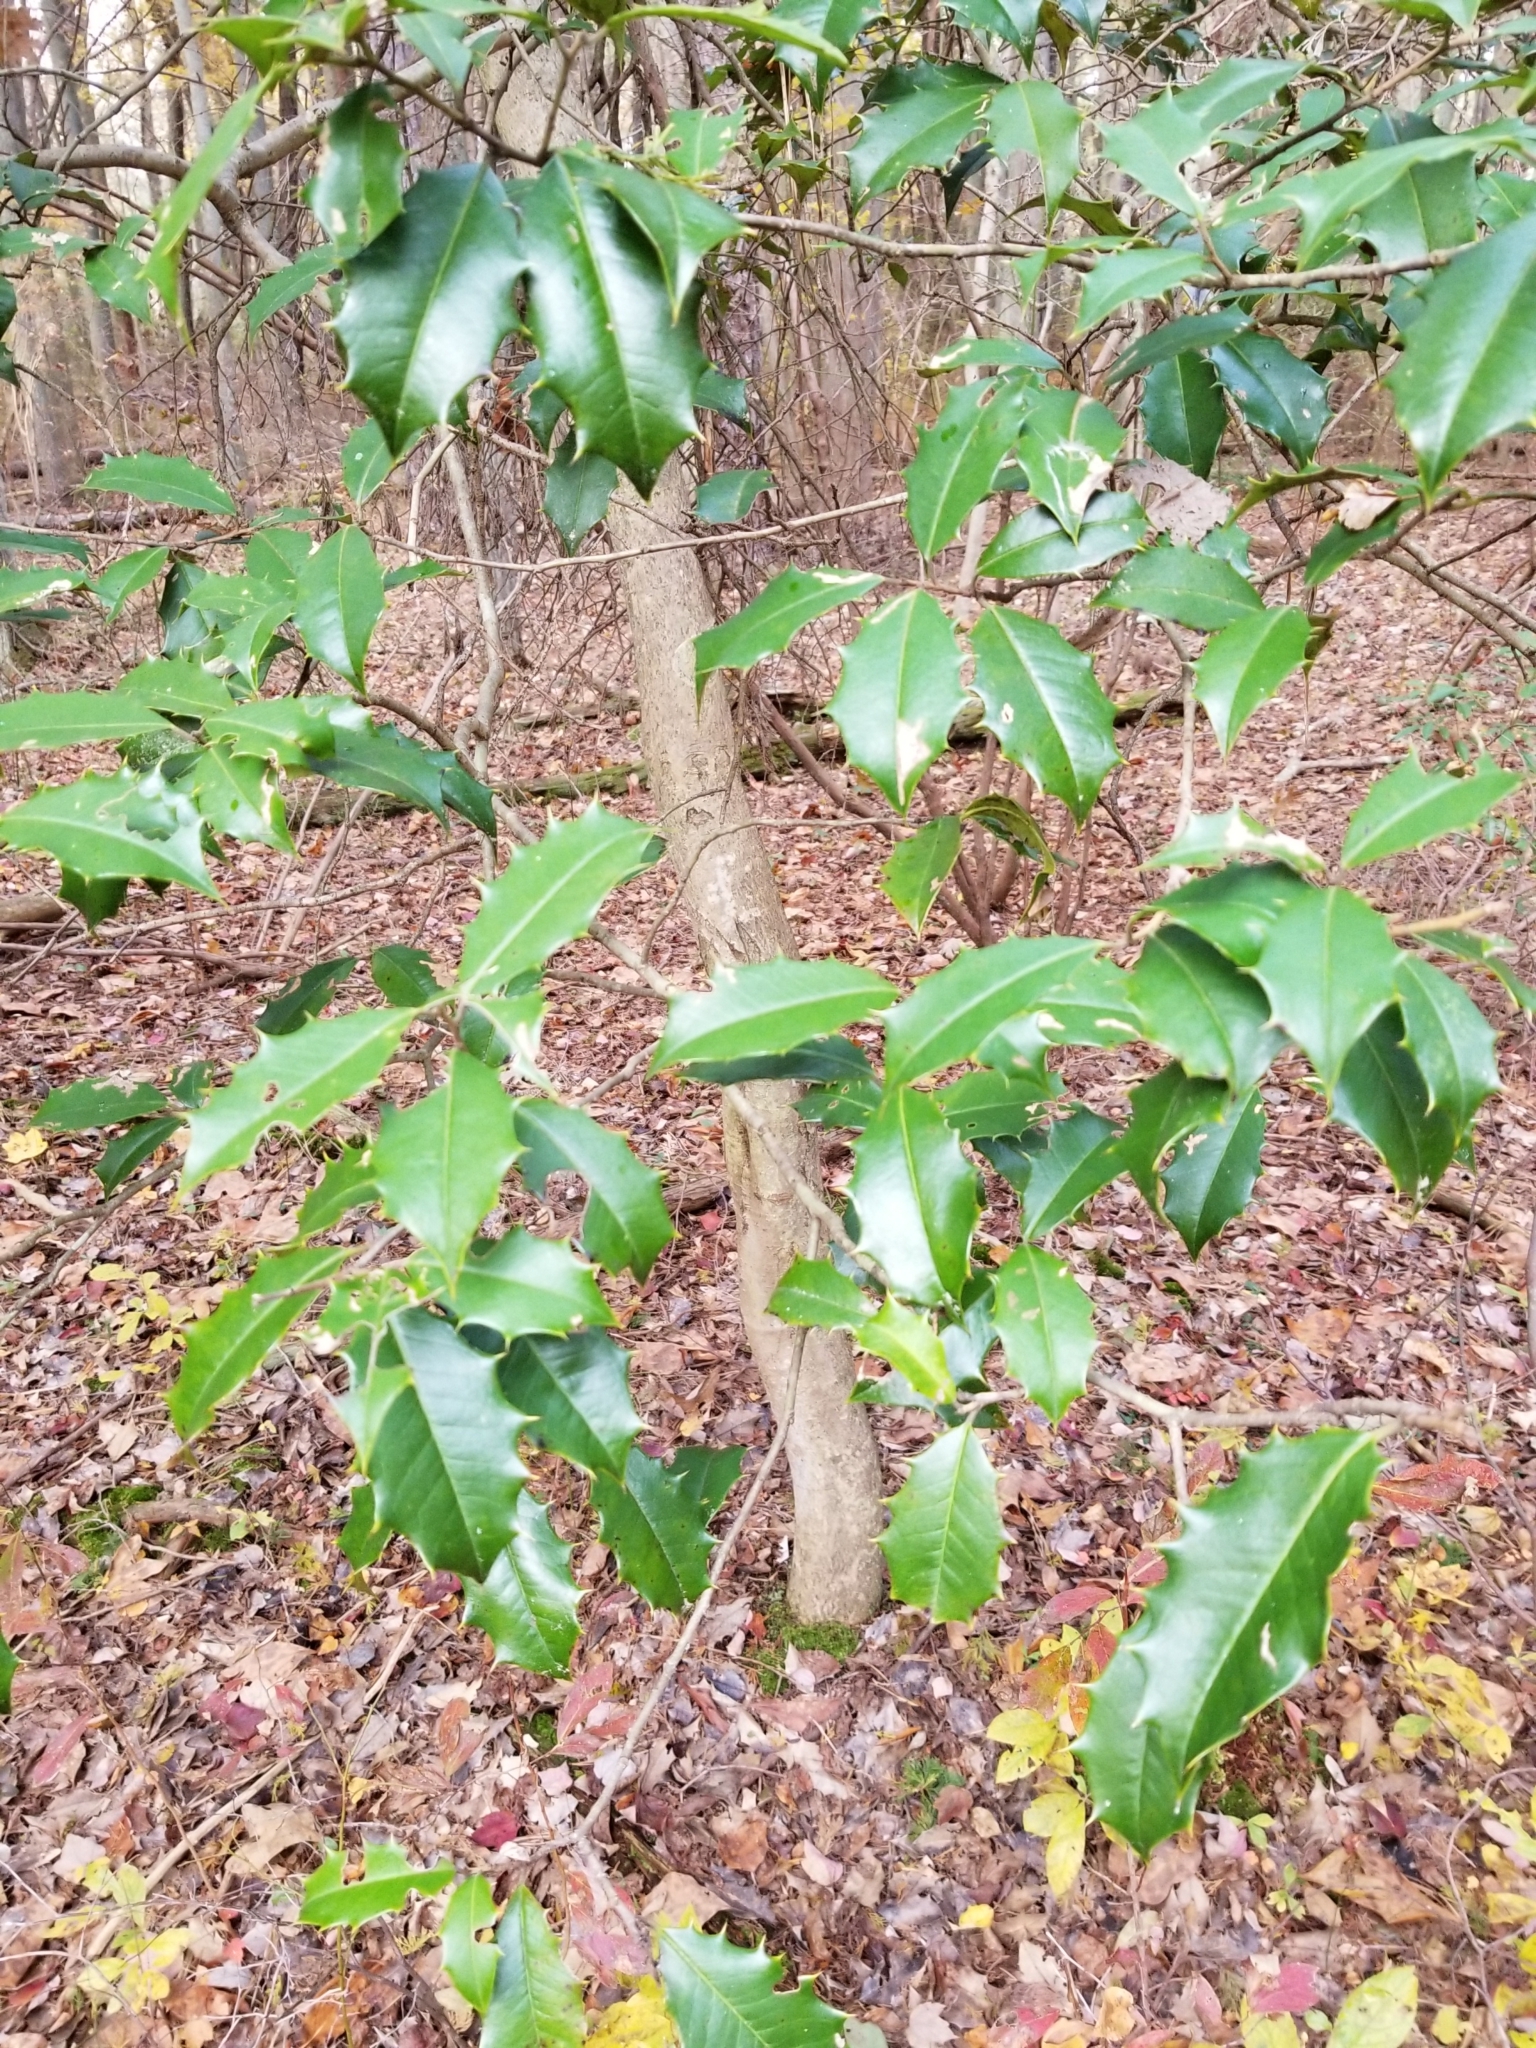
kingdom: Plantae
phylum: Tracheophyta
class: Magnoliopsida
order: Aquifoliales
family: Aquifoliaceae
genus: Ilex
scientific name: Ilex opaca
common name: American holly
